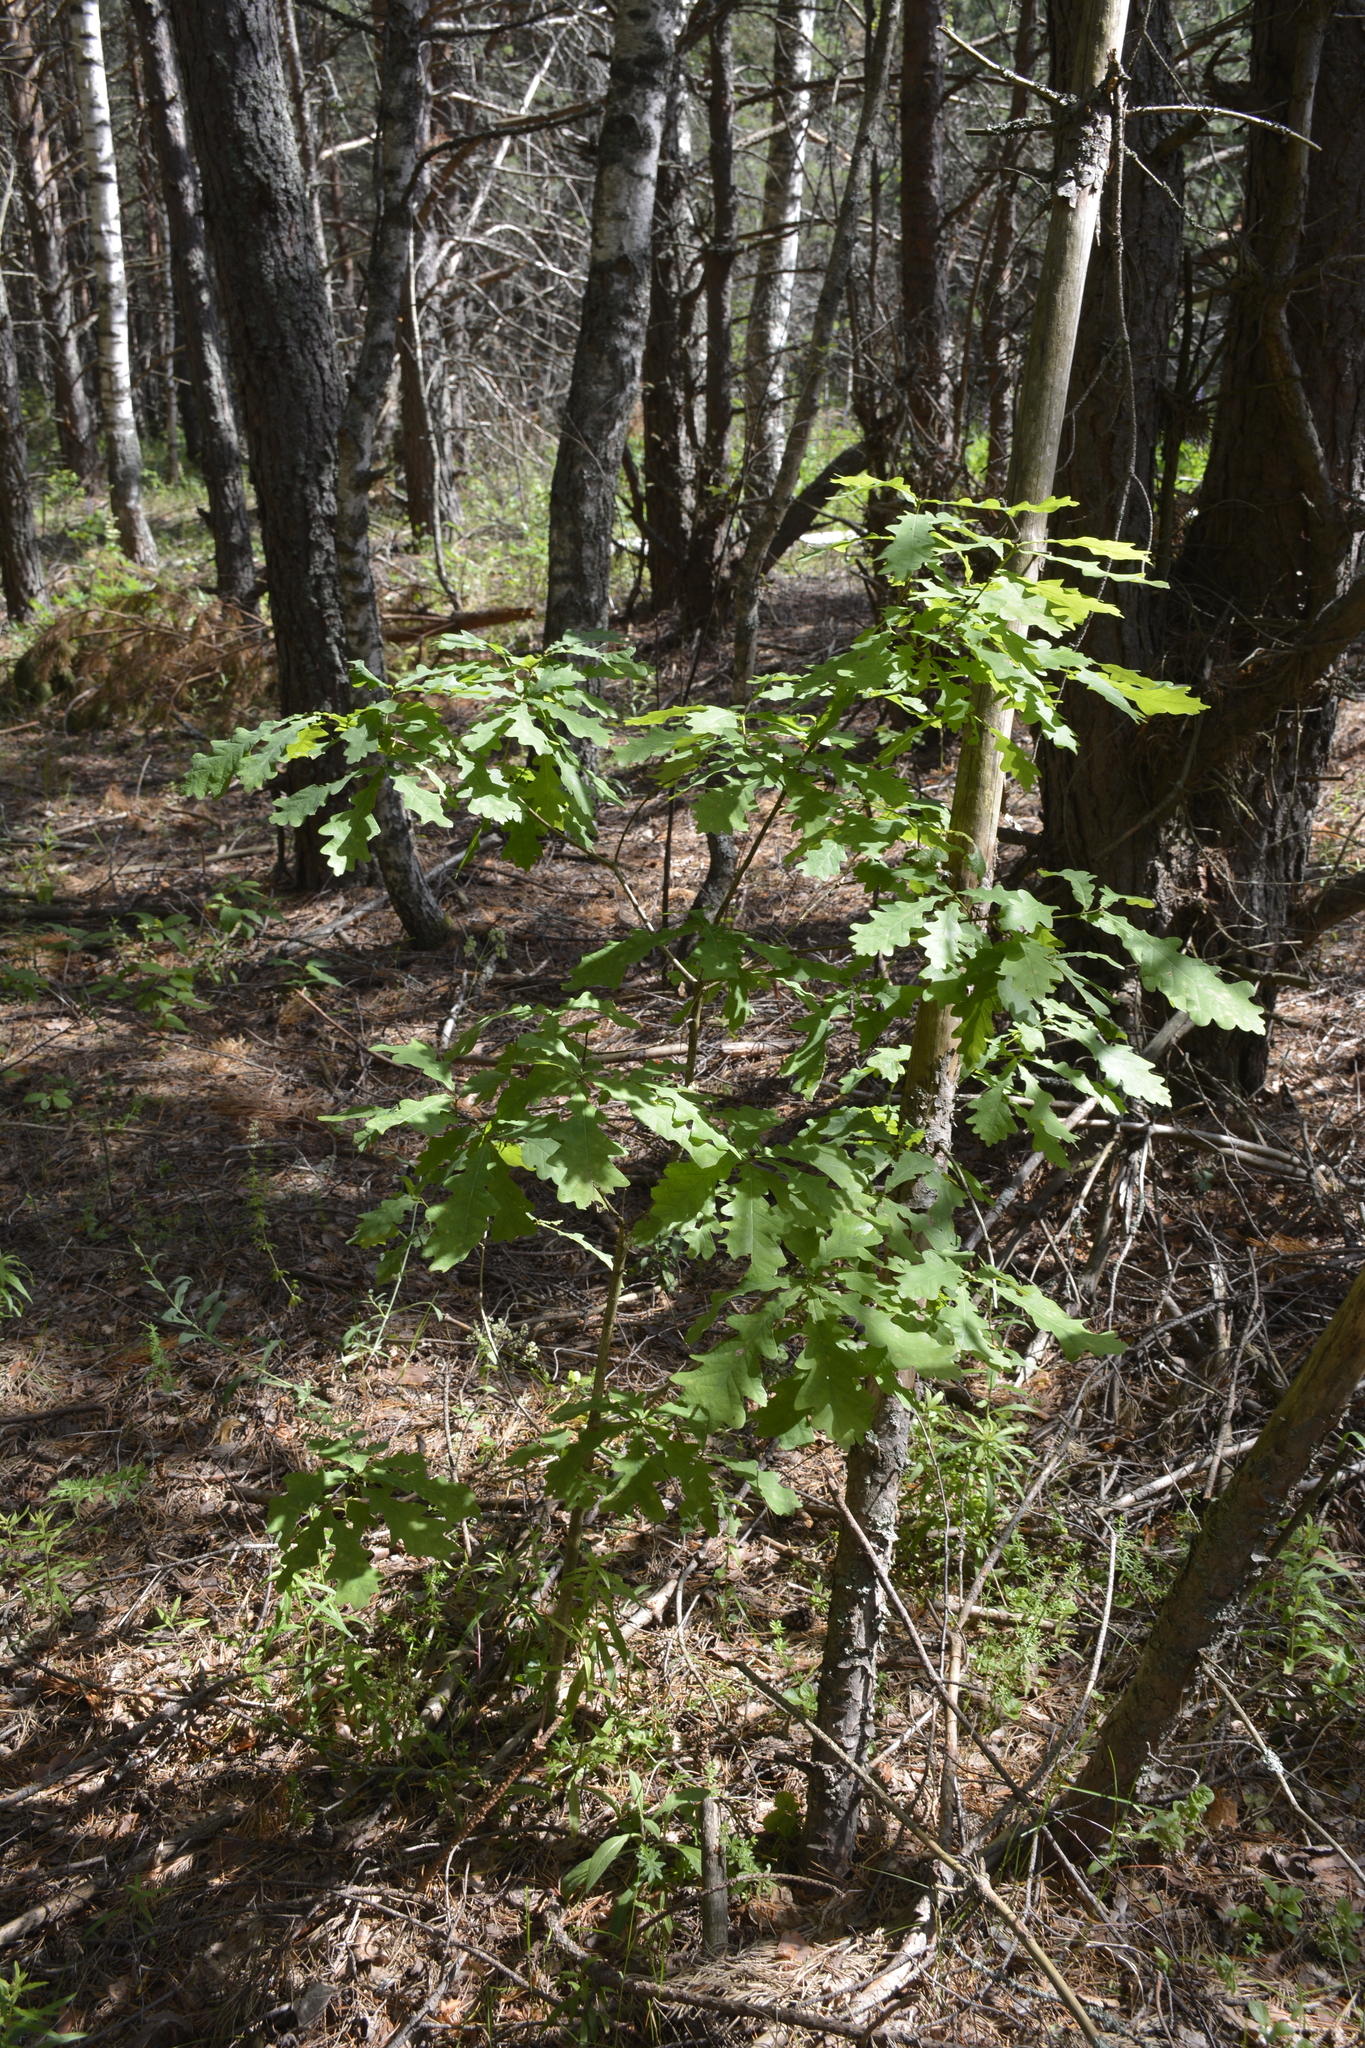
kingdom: Plantae
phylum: Tracheophyta
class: Magnoliopsida
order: Fagales
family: Fagaceae
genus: Quercus
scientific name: Quercus robur
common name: Pedunculate oak
